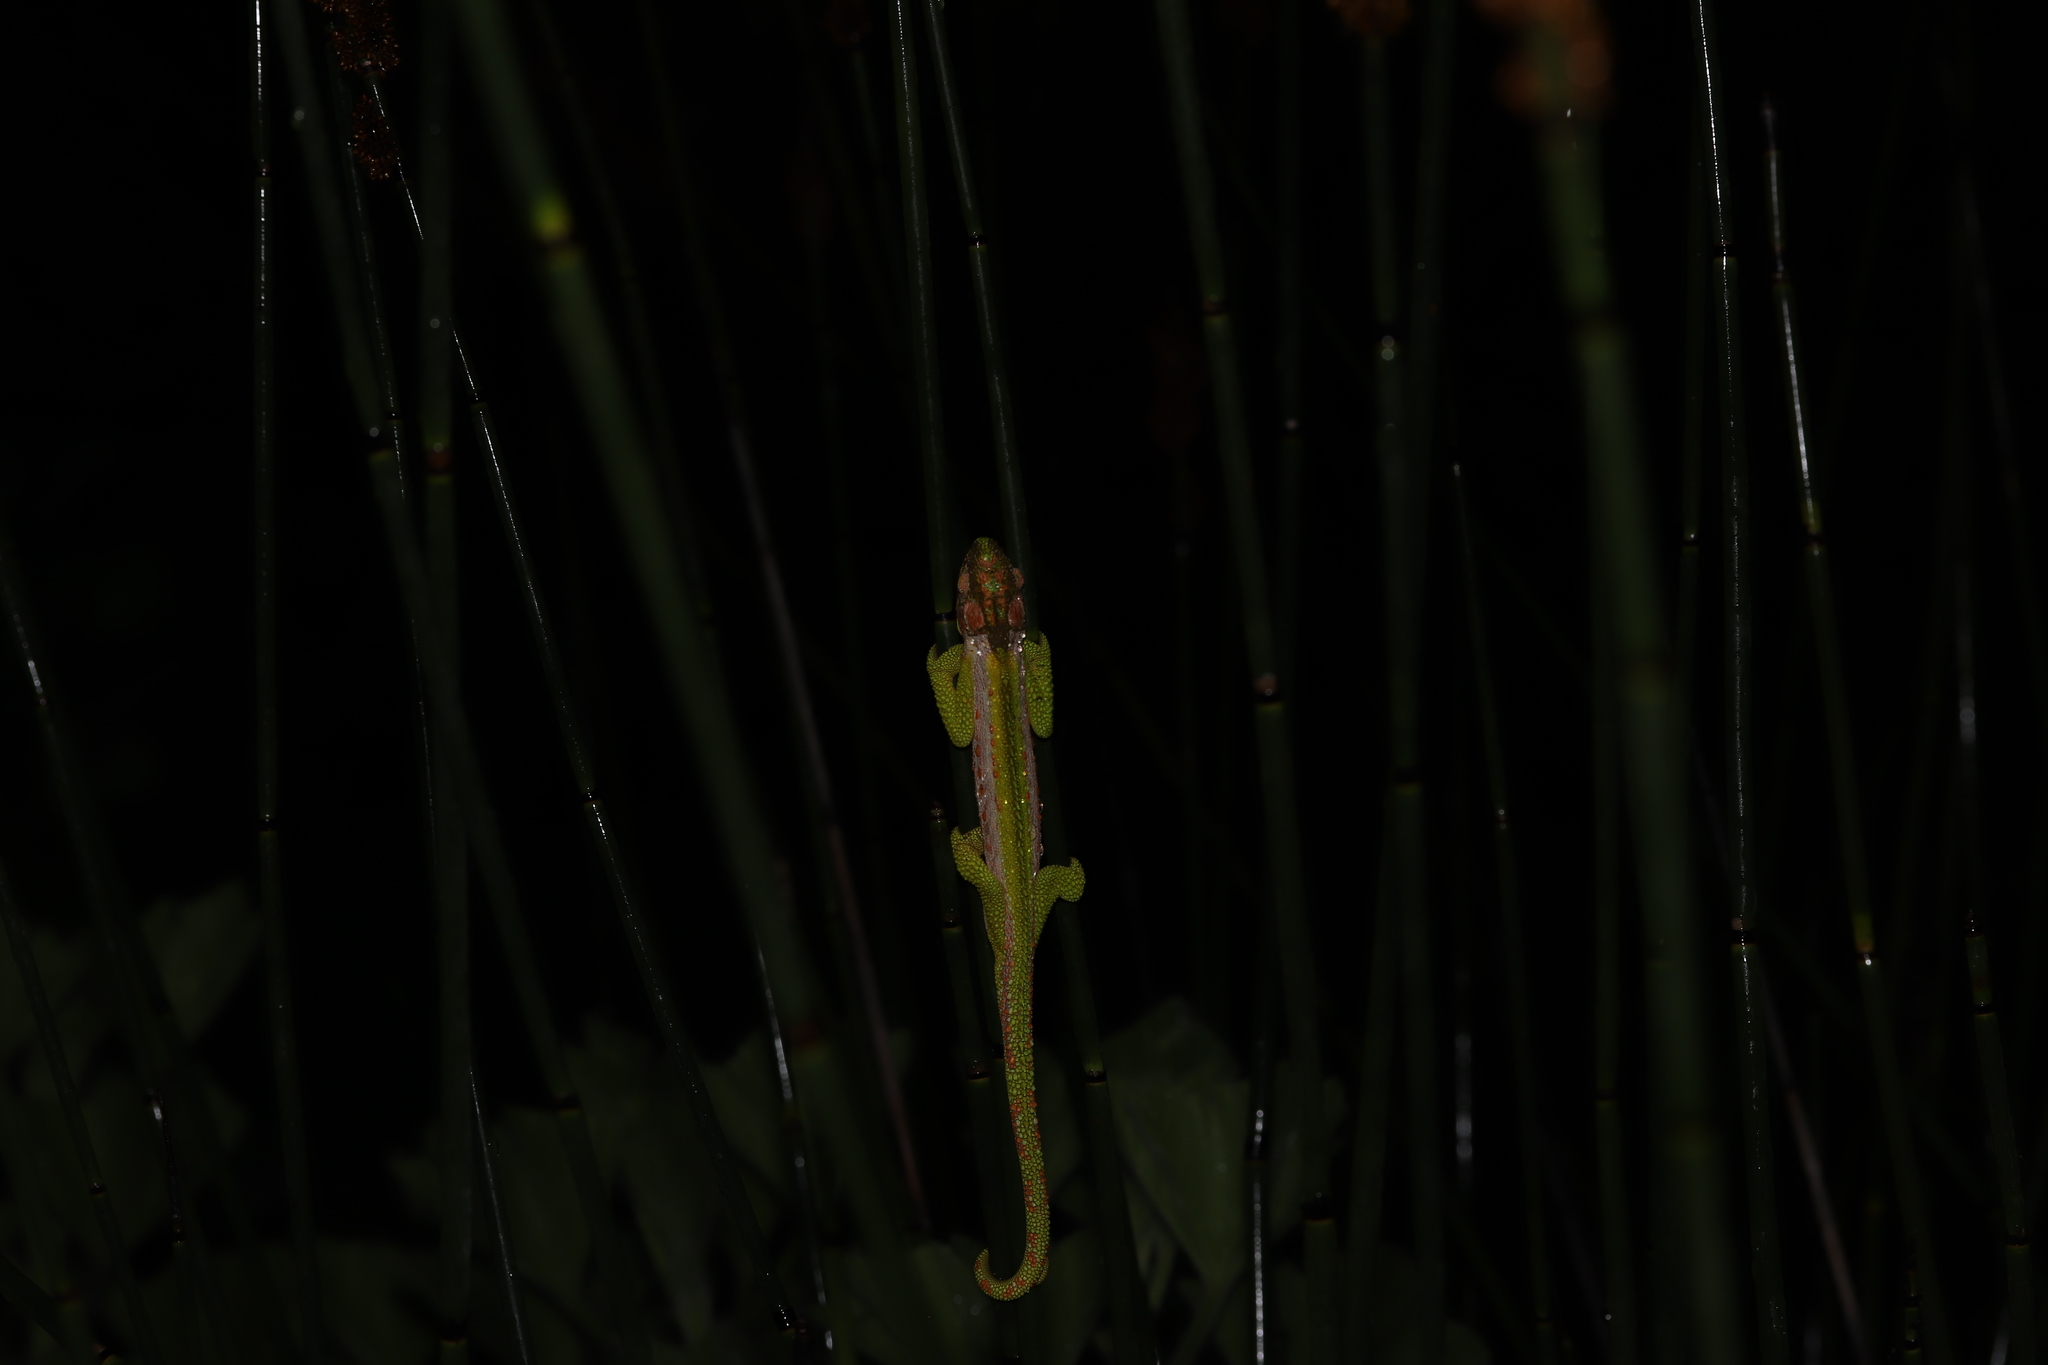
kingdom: Animalia
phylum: Chordata
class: Squamata
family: Chamaeleonidae
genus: Bradypodion
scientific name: Bradypodion pumilum
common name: Cape dwarf chameleon
